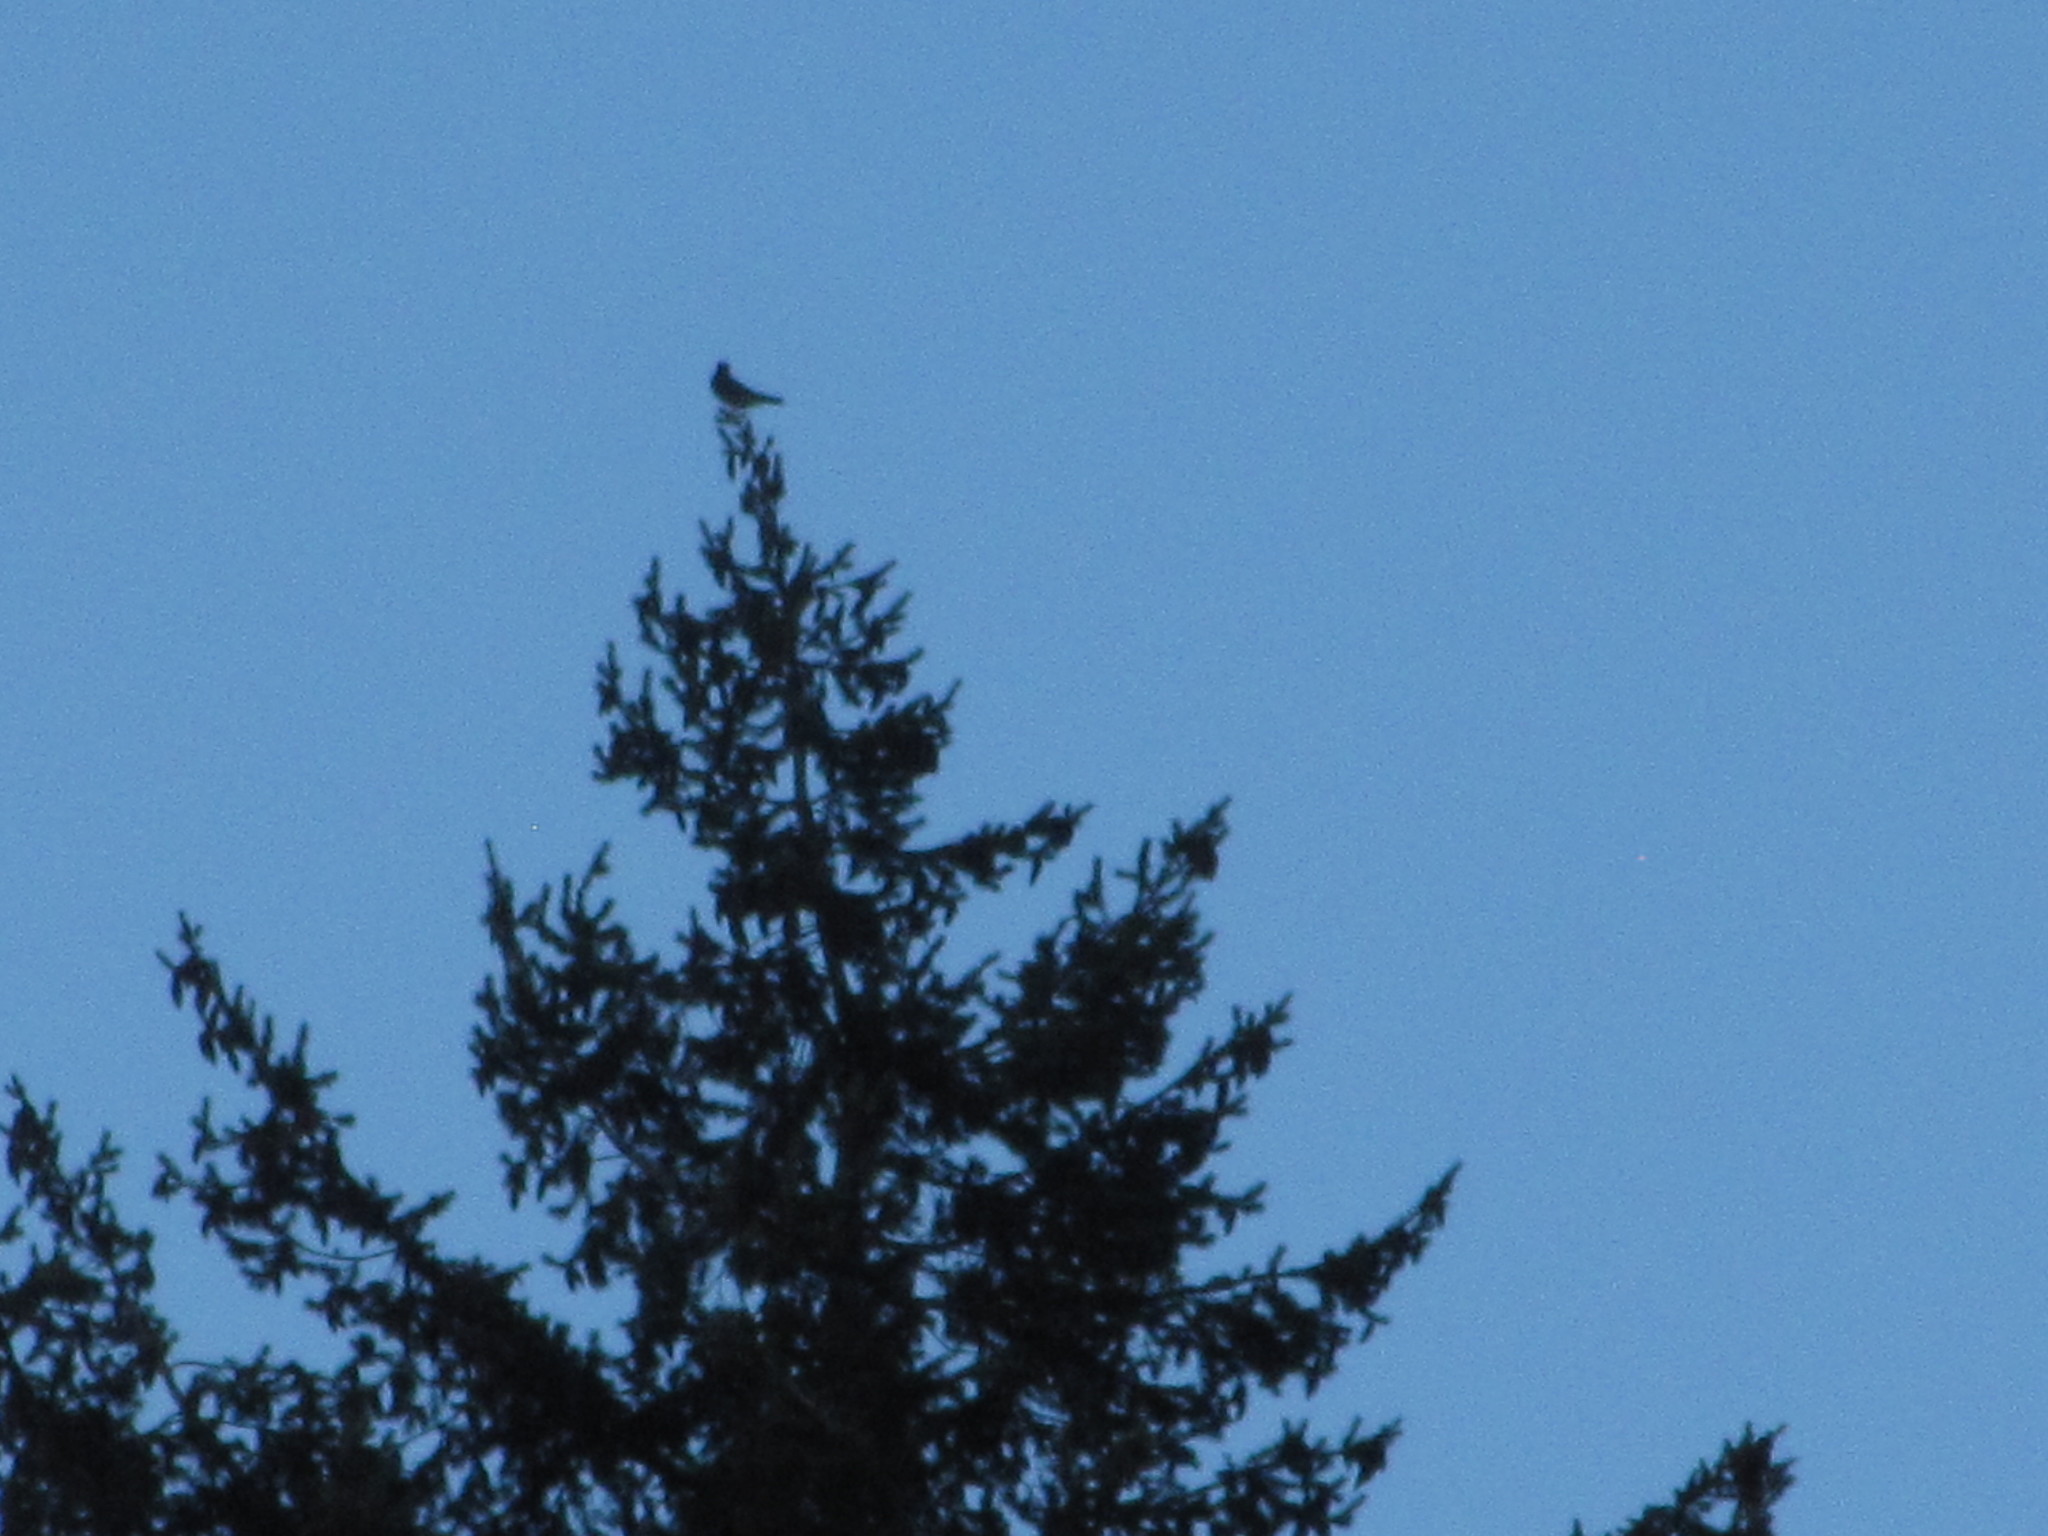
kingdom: Animalia
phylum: Chordata
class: Aves
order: Passeriformes
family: Turdidae
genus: Turdus
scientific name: Turdus migratorius
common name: American robin
